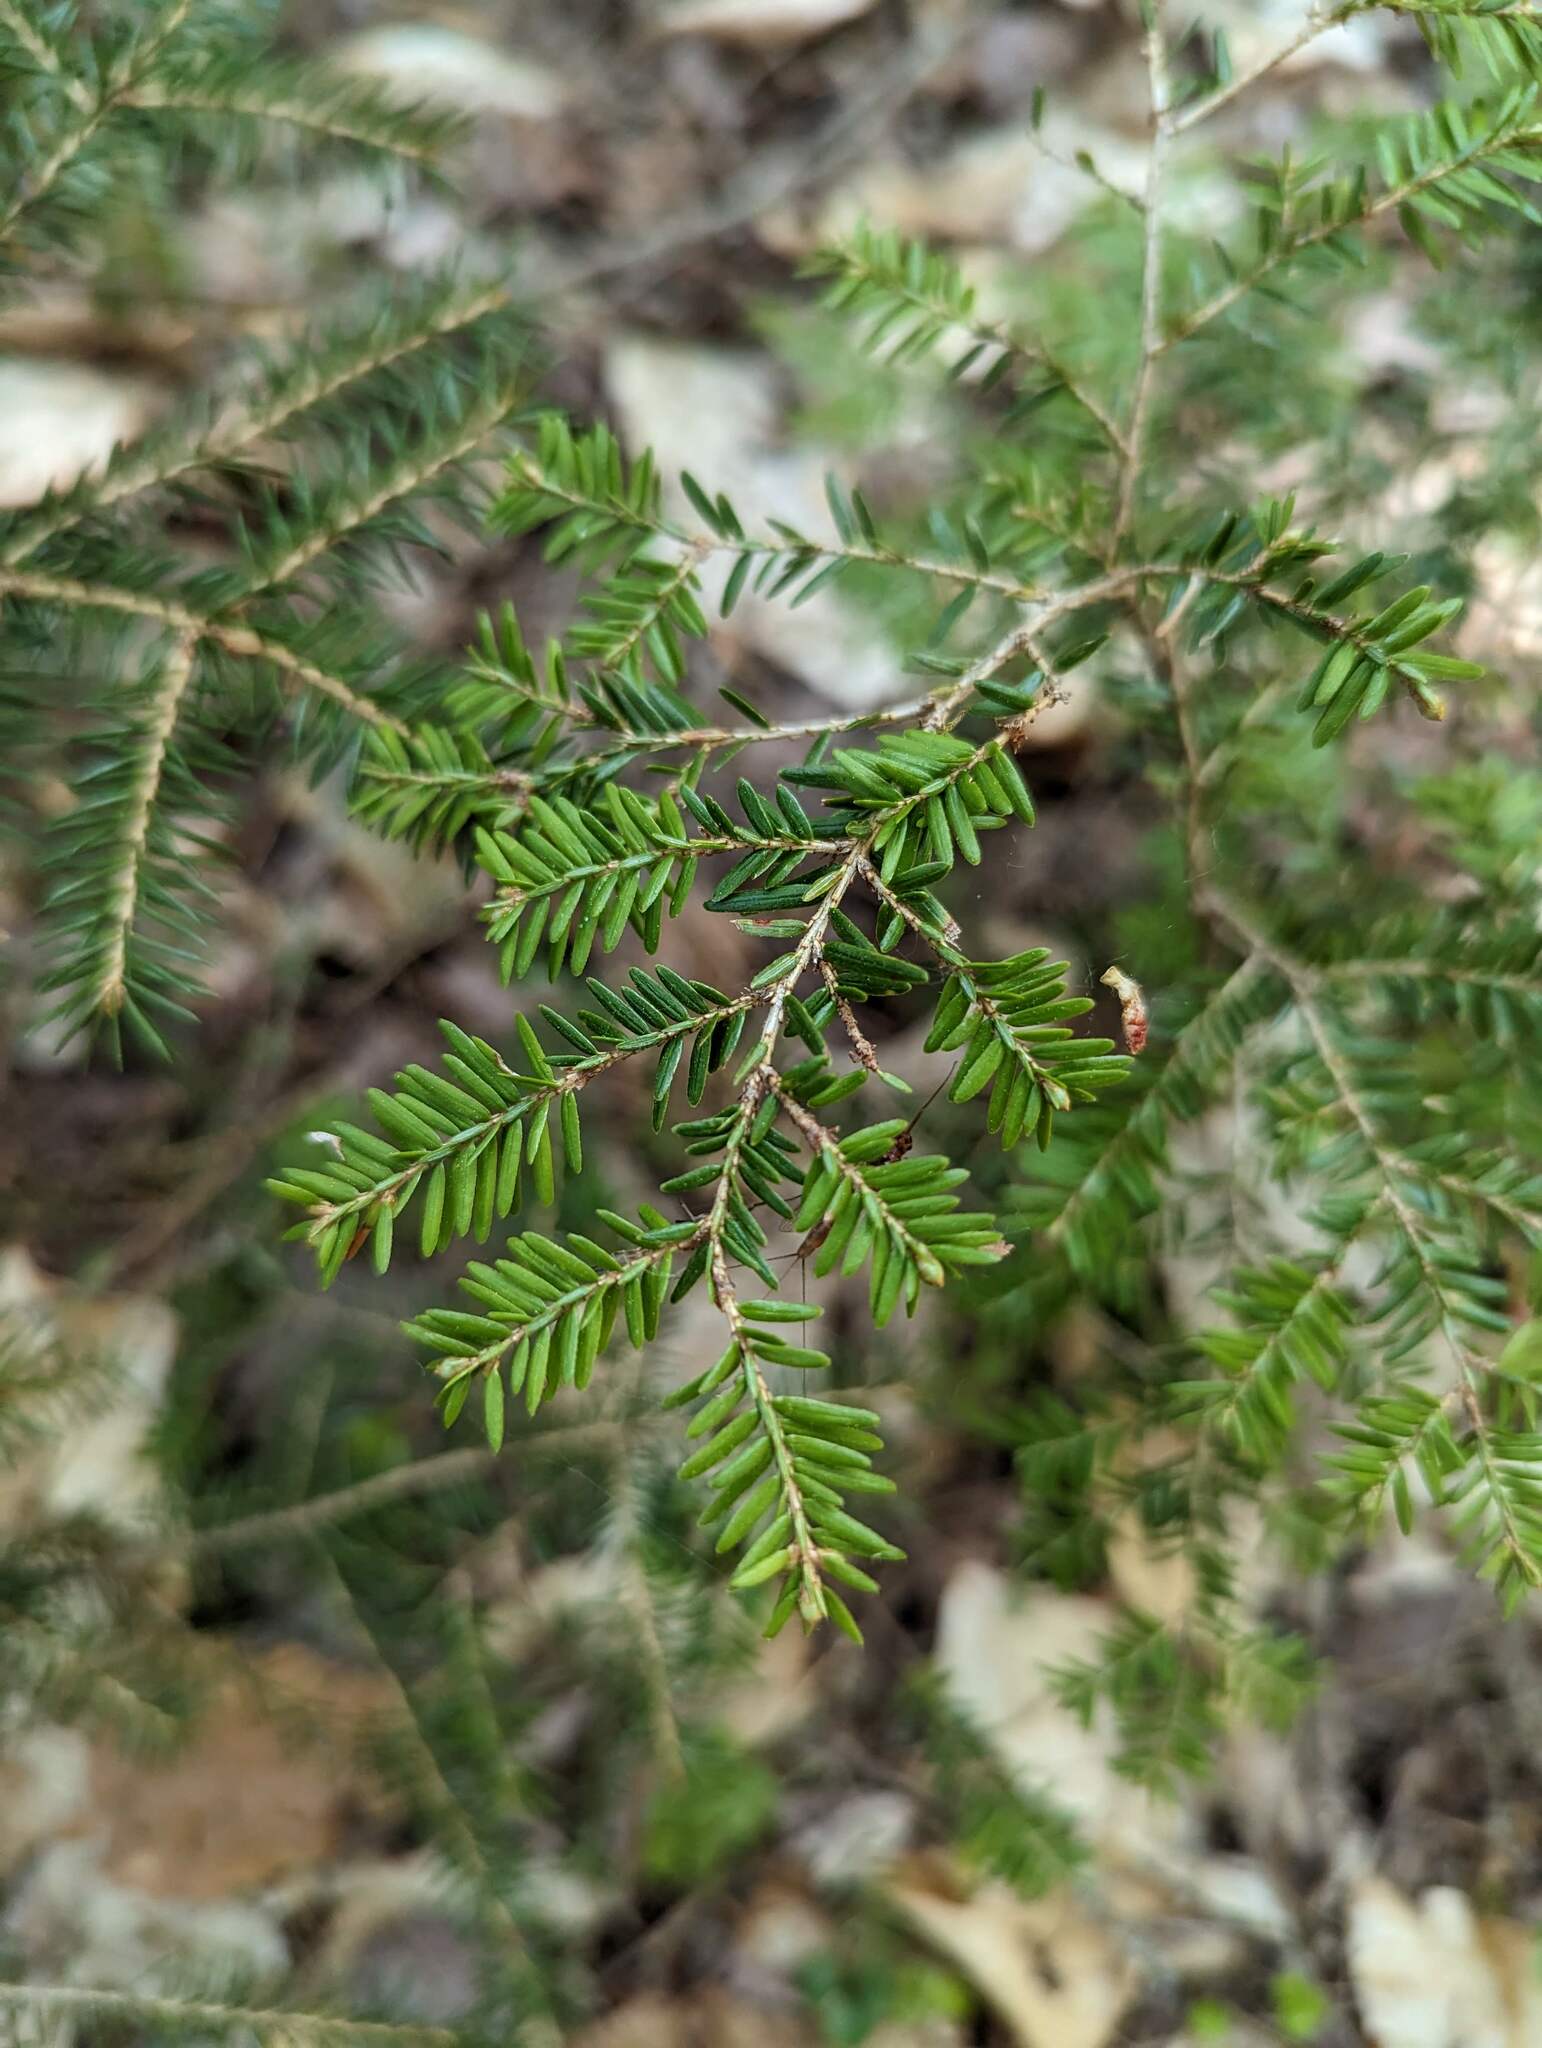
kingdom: Plantae
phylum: Tracheophyta
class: Pinopsida
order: Pinales
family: Pinaceae
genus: Tsuga
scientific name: Tsuga canadensis
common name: Eastern hemlock
